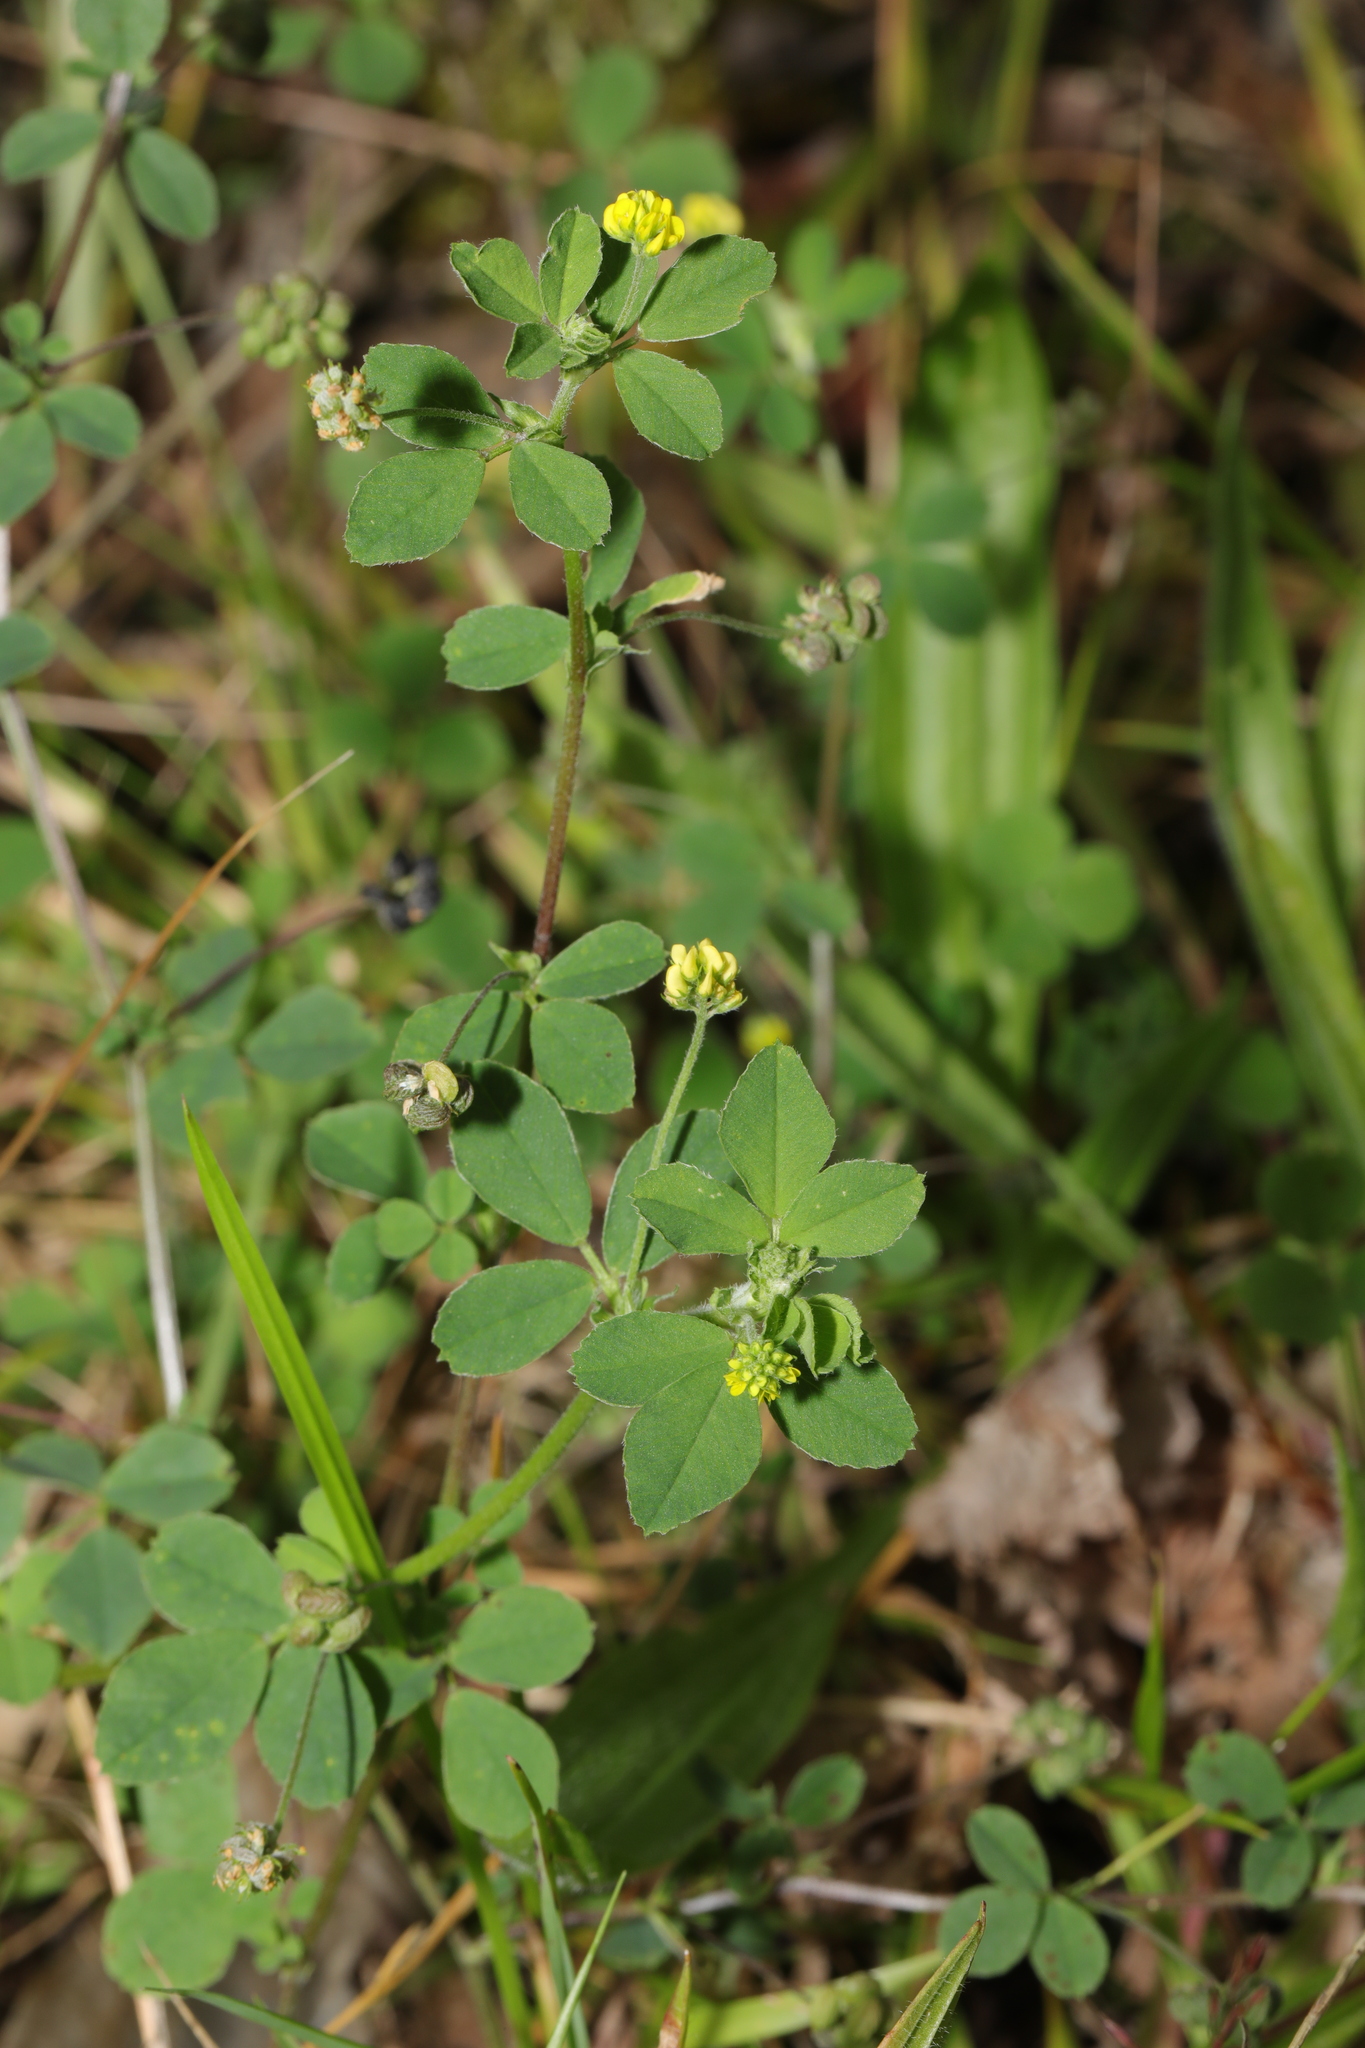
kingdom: Plantae
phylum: Tracheophyta
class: Magnoliopsida
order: Fabales
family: Fabaceae
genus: Medicago
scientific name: Medicago lupulina
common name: Black medick
